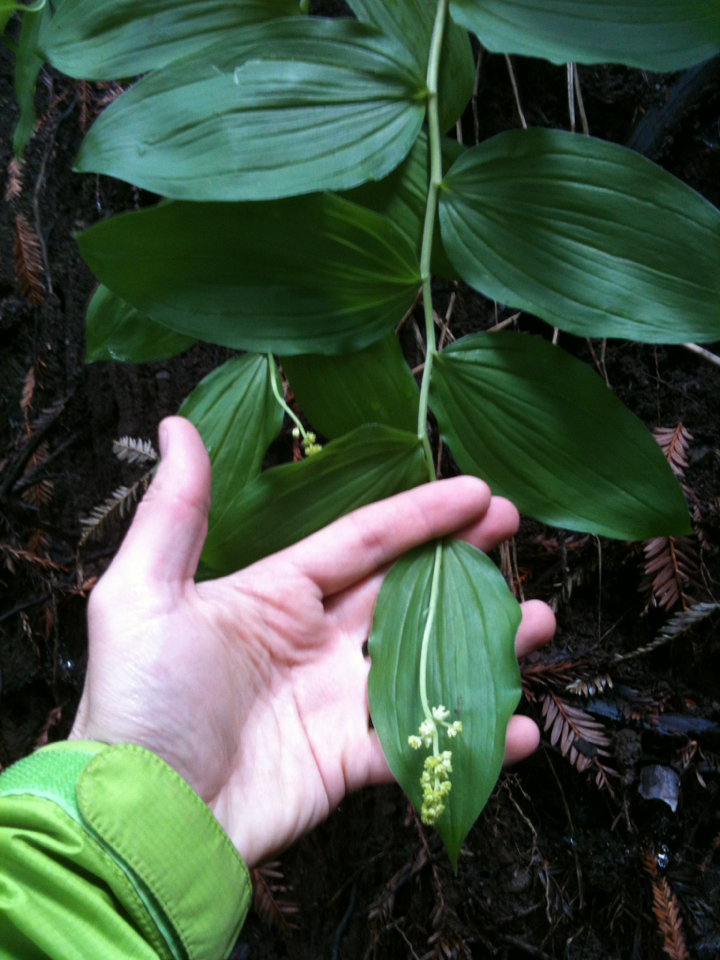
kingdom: Plantae
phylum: Tracheophyta
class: Liliopsida
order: Asparagales
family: Asparagaceae
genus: Maianthemum
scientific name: Maianthemum racemosum
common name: False spikenard
